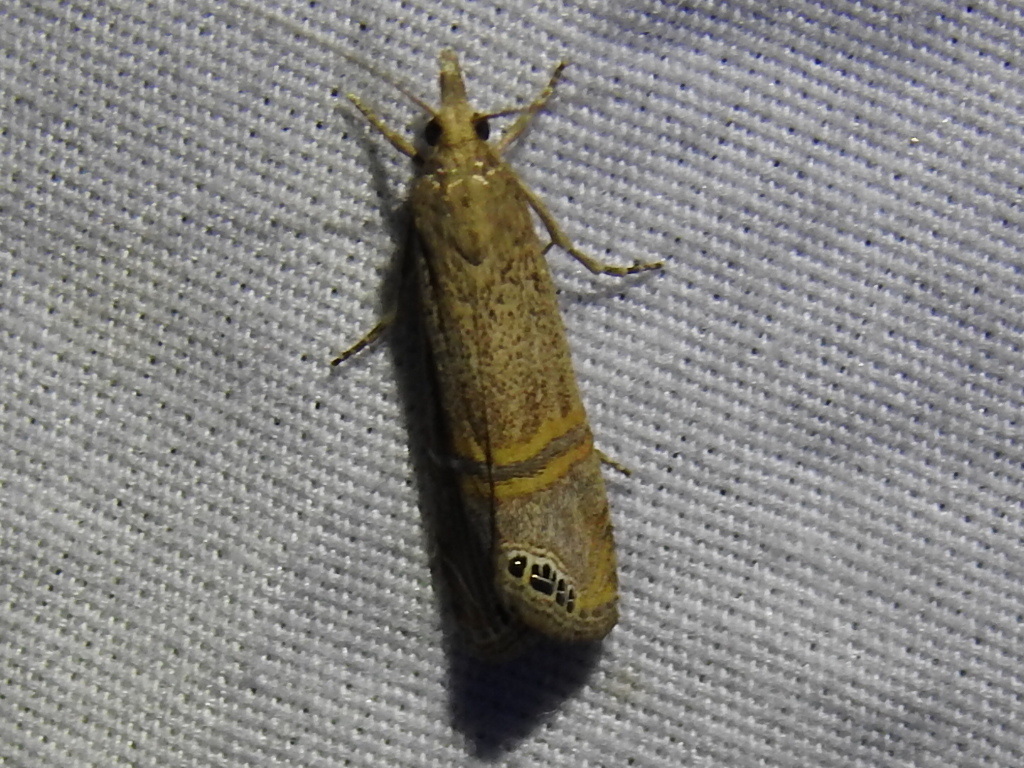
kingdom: Animalia
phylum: Arthropoda
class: Insecta
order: Lepidoptera
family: Crambidae
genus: Euchromius
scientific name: Euchromius ocellea
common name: Necklace veneer moth
